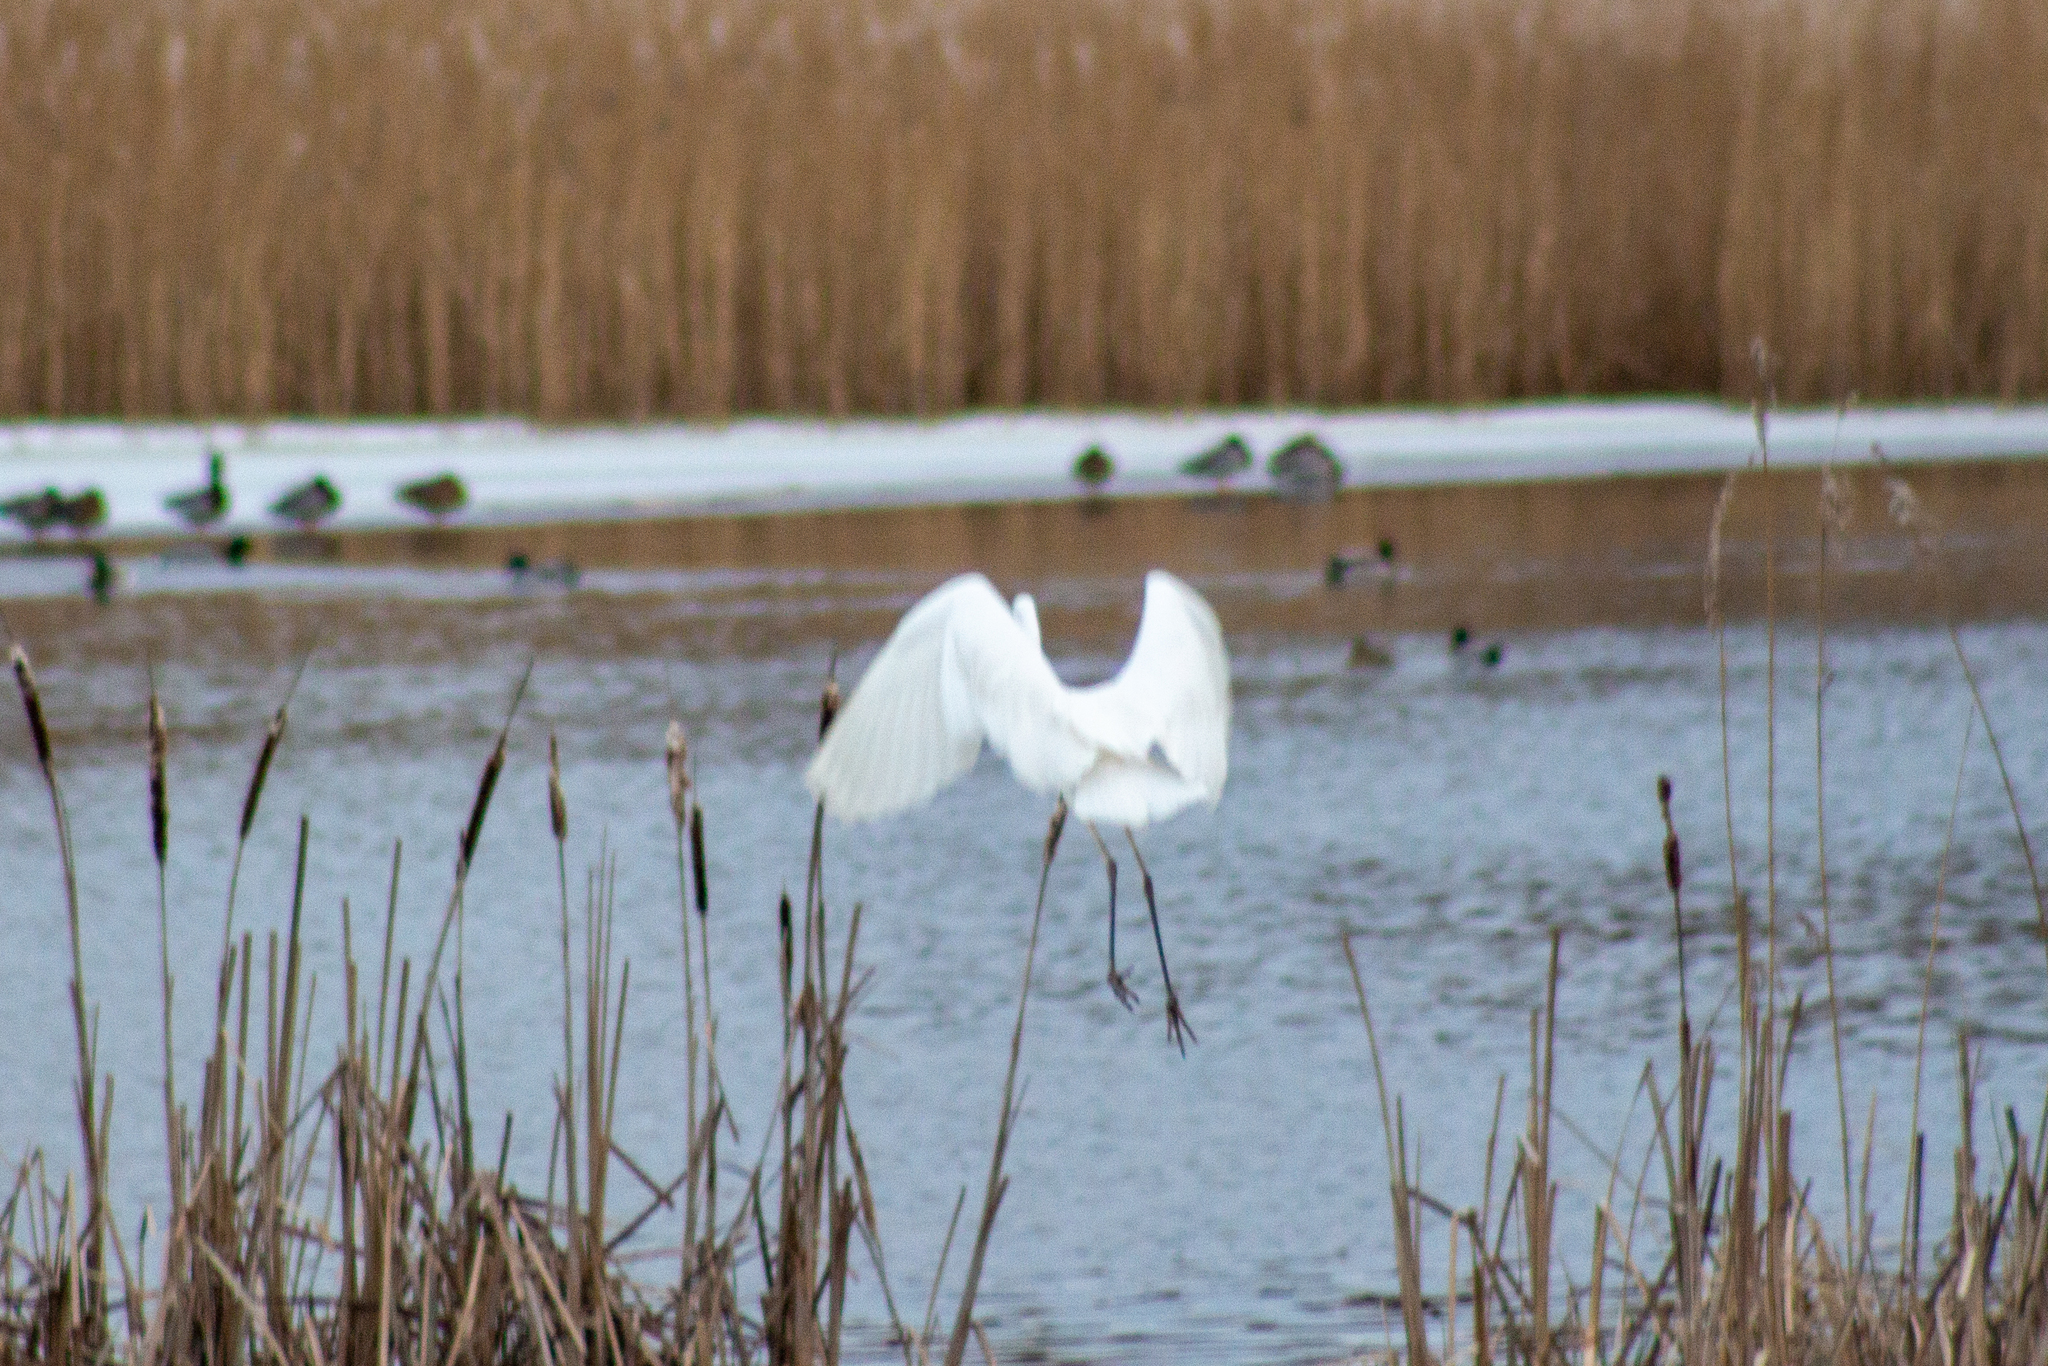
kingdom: Animalia
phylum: Chordata
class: Aves
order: Pelecaniformes
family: Ardeidae
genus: Ardea
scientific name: Ardea alba
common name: Great egret
